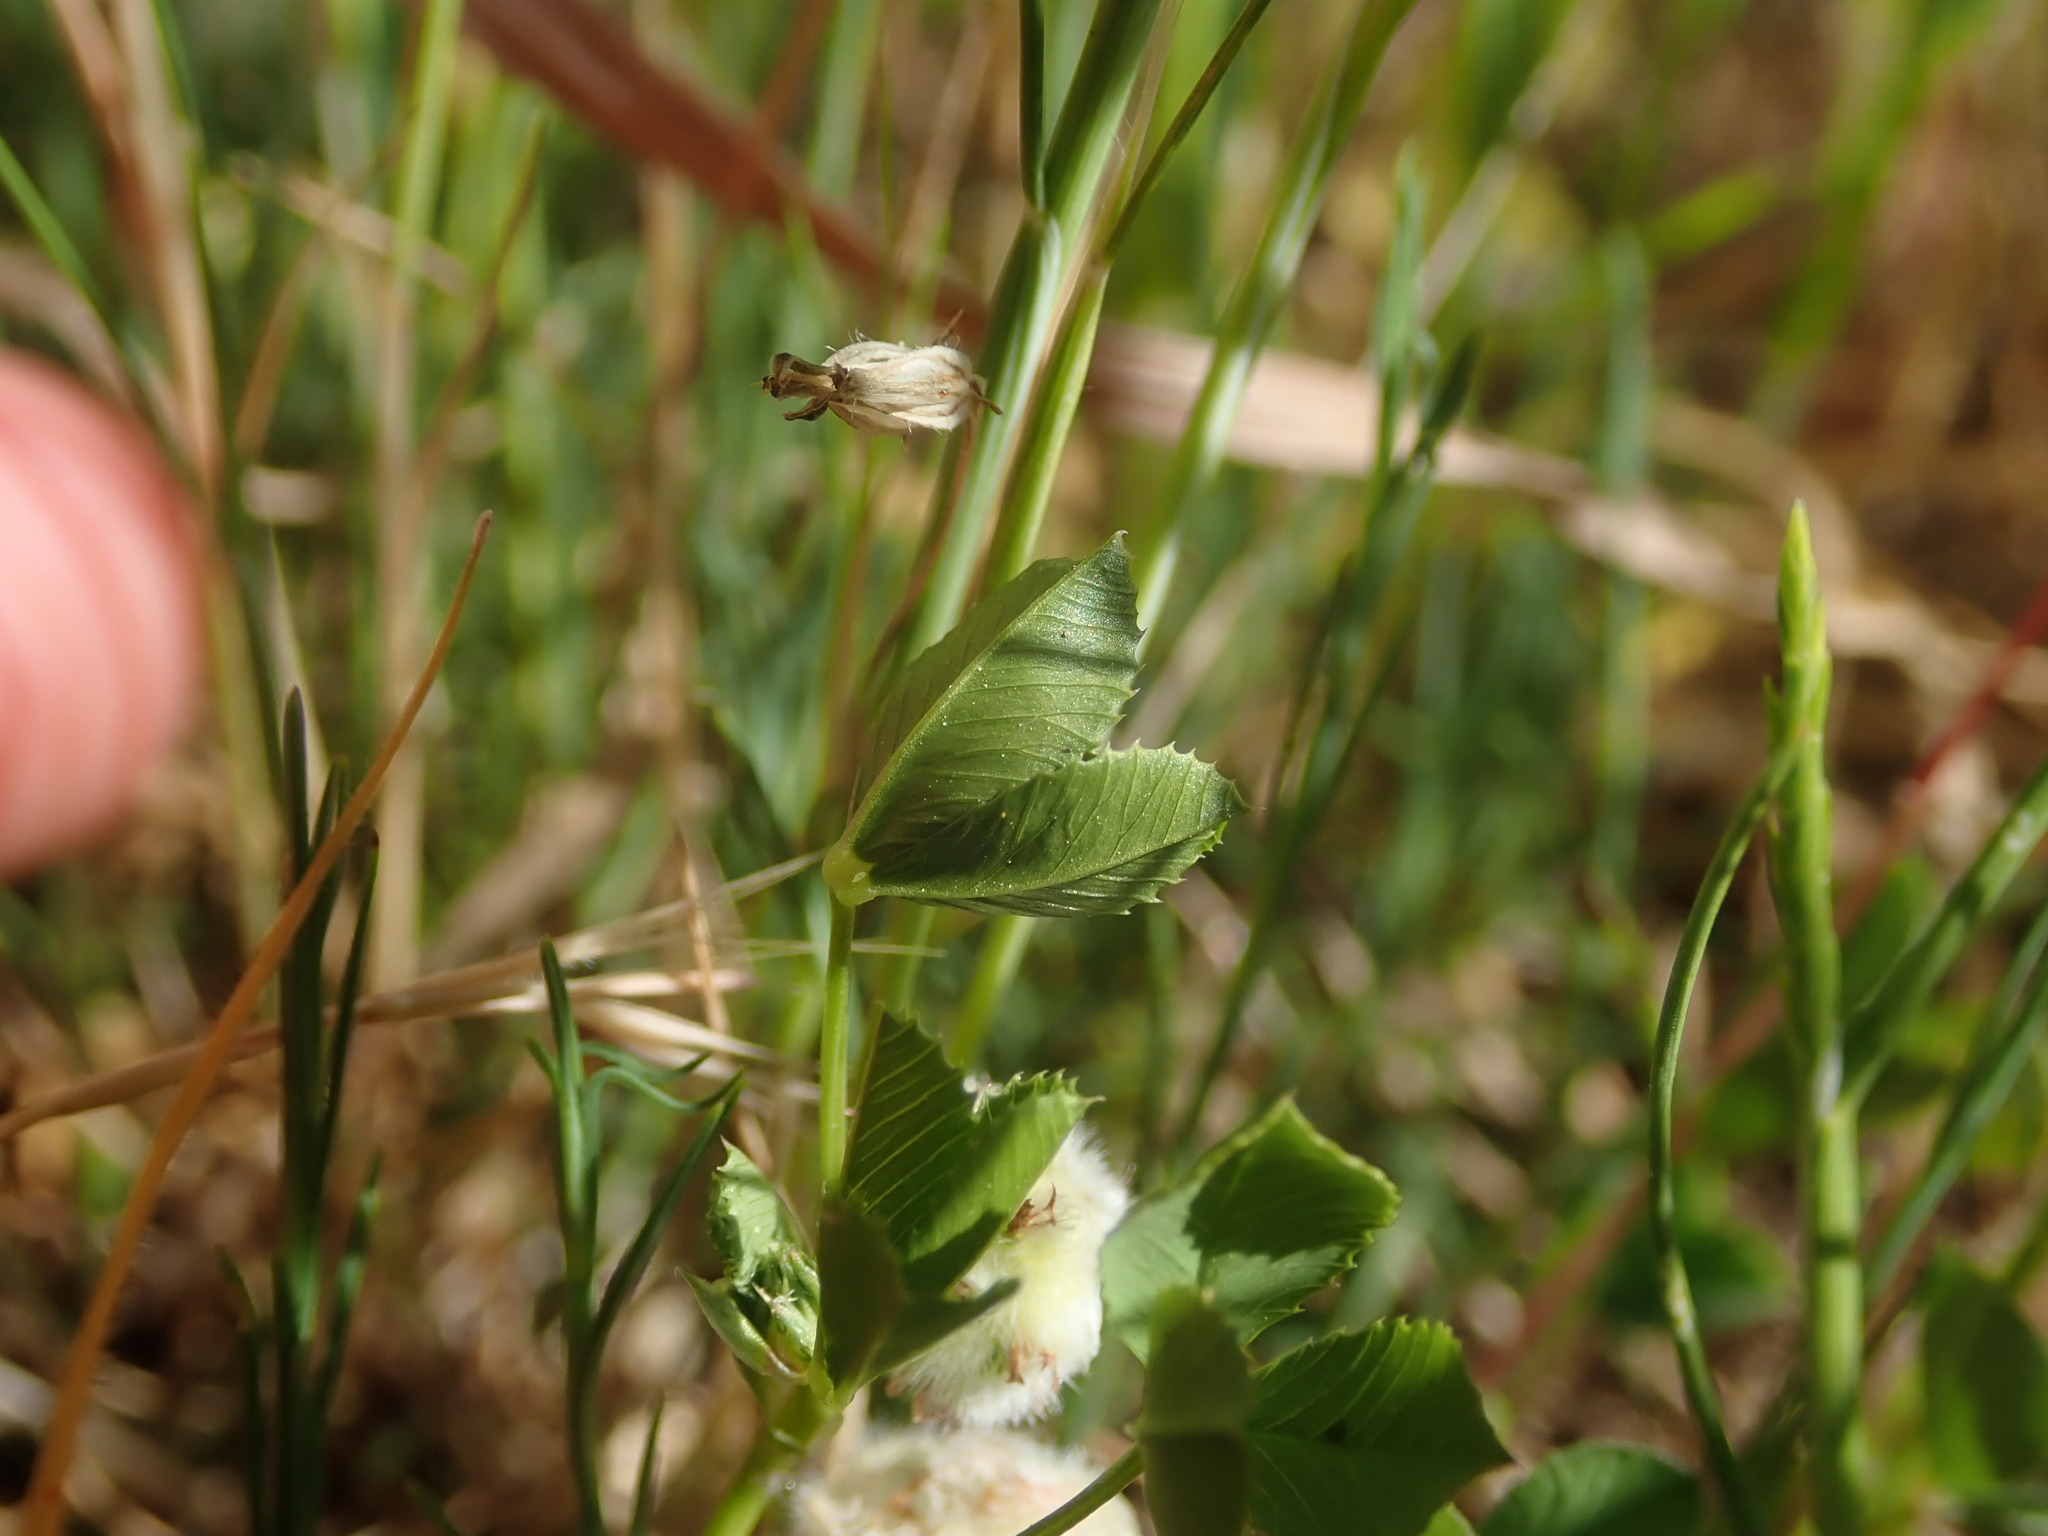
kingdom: Plantae
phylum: Tracheophyta
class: Magnoliopsida
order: Fabales
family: Fabaceae
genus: Trifolium
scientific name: Trifolium tomentosum
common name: Woolly clover
